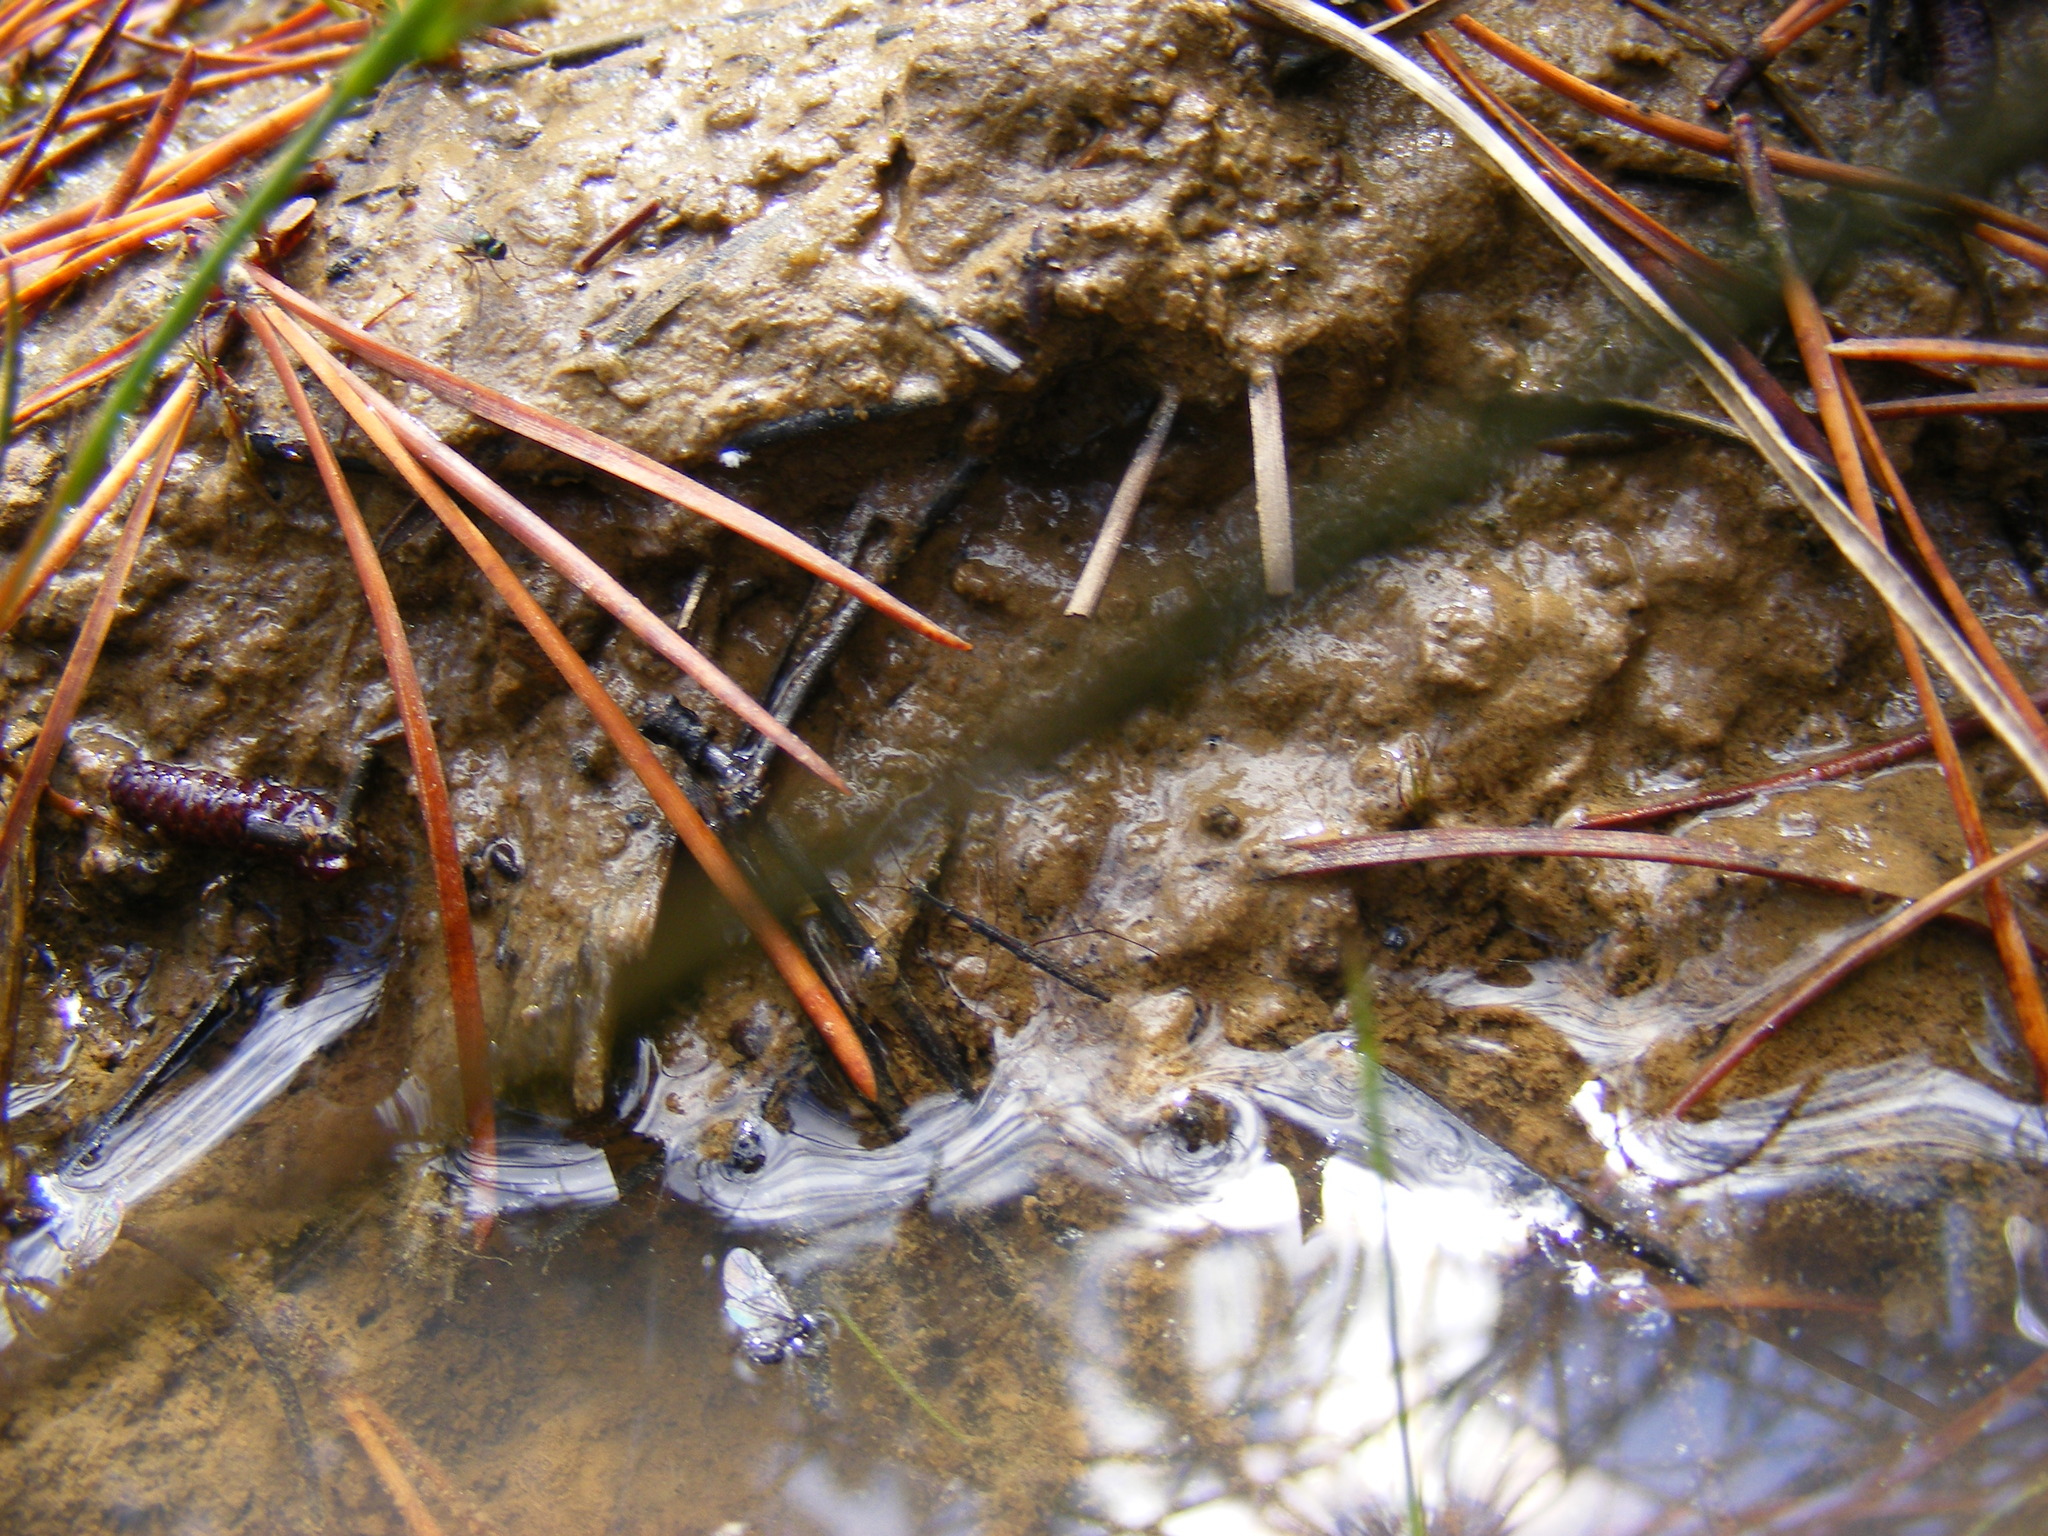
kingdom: Animalia
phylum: Arthropoda
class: Insecta
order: Hemiptera
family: Hydrometridae
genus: Hydrometra
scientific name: Hydrometra stagnorum
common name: Water measurer
